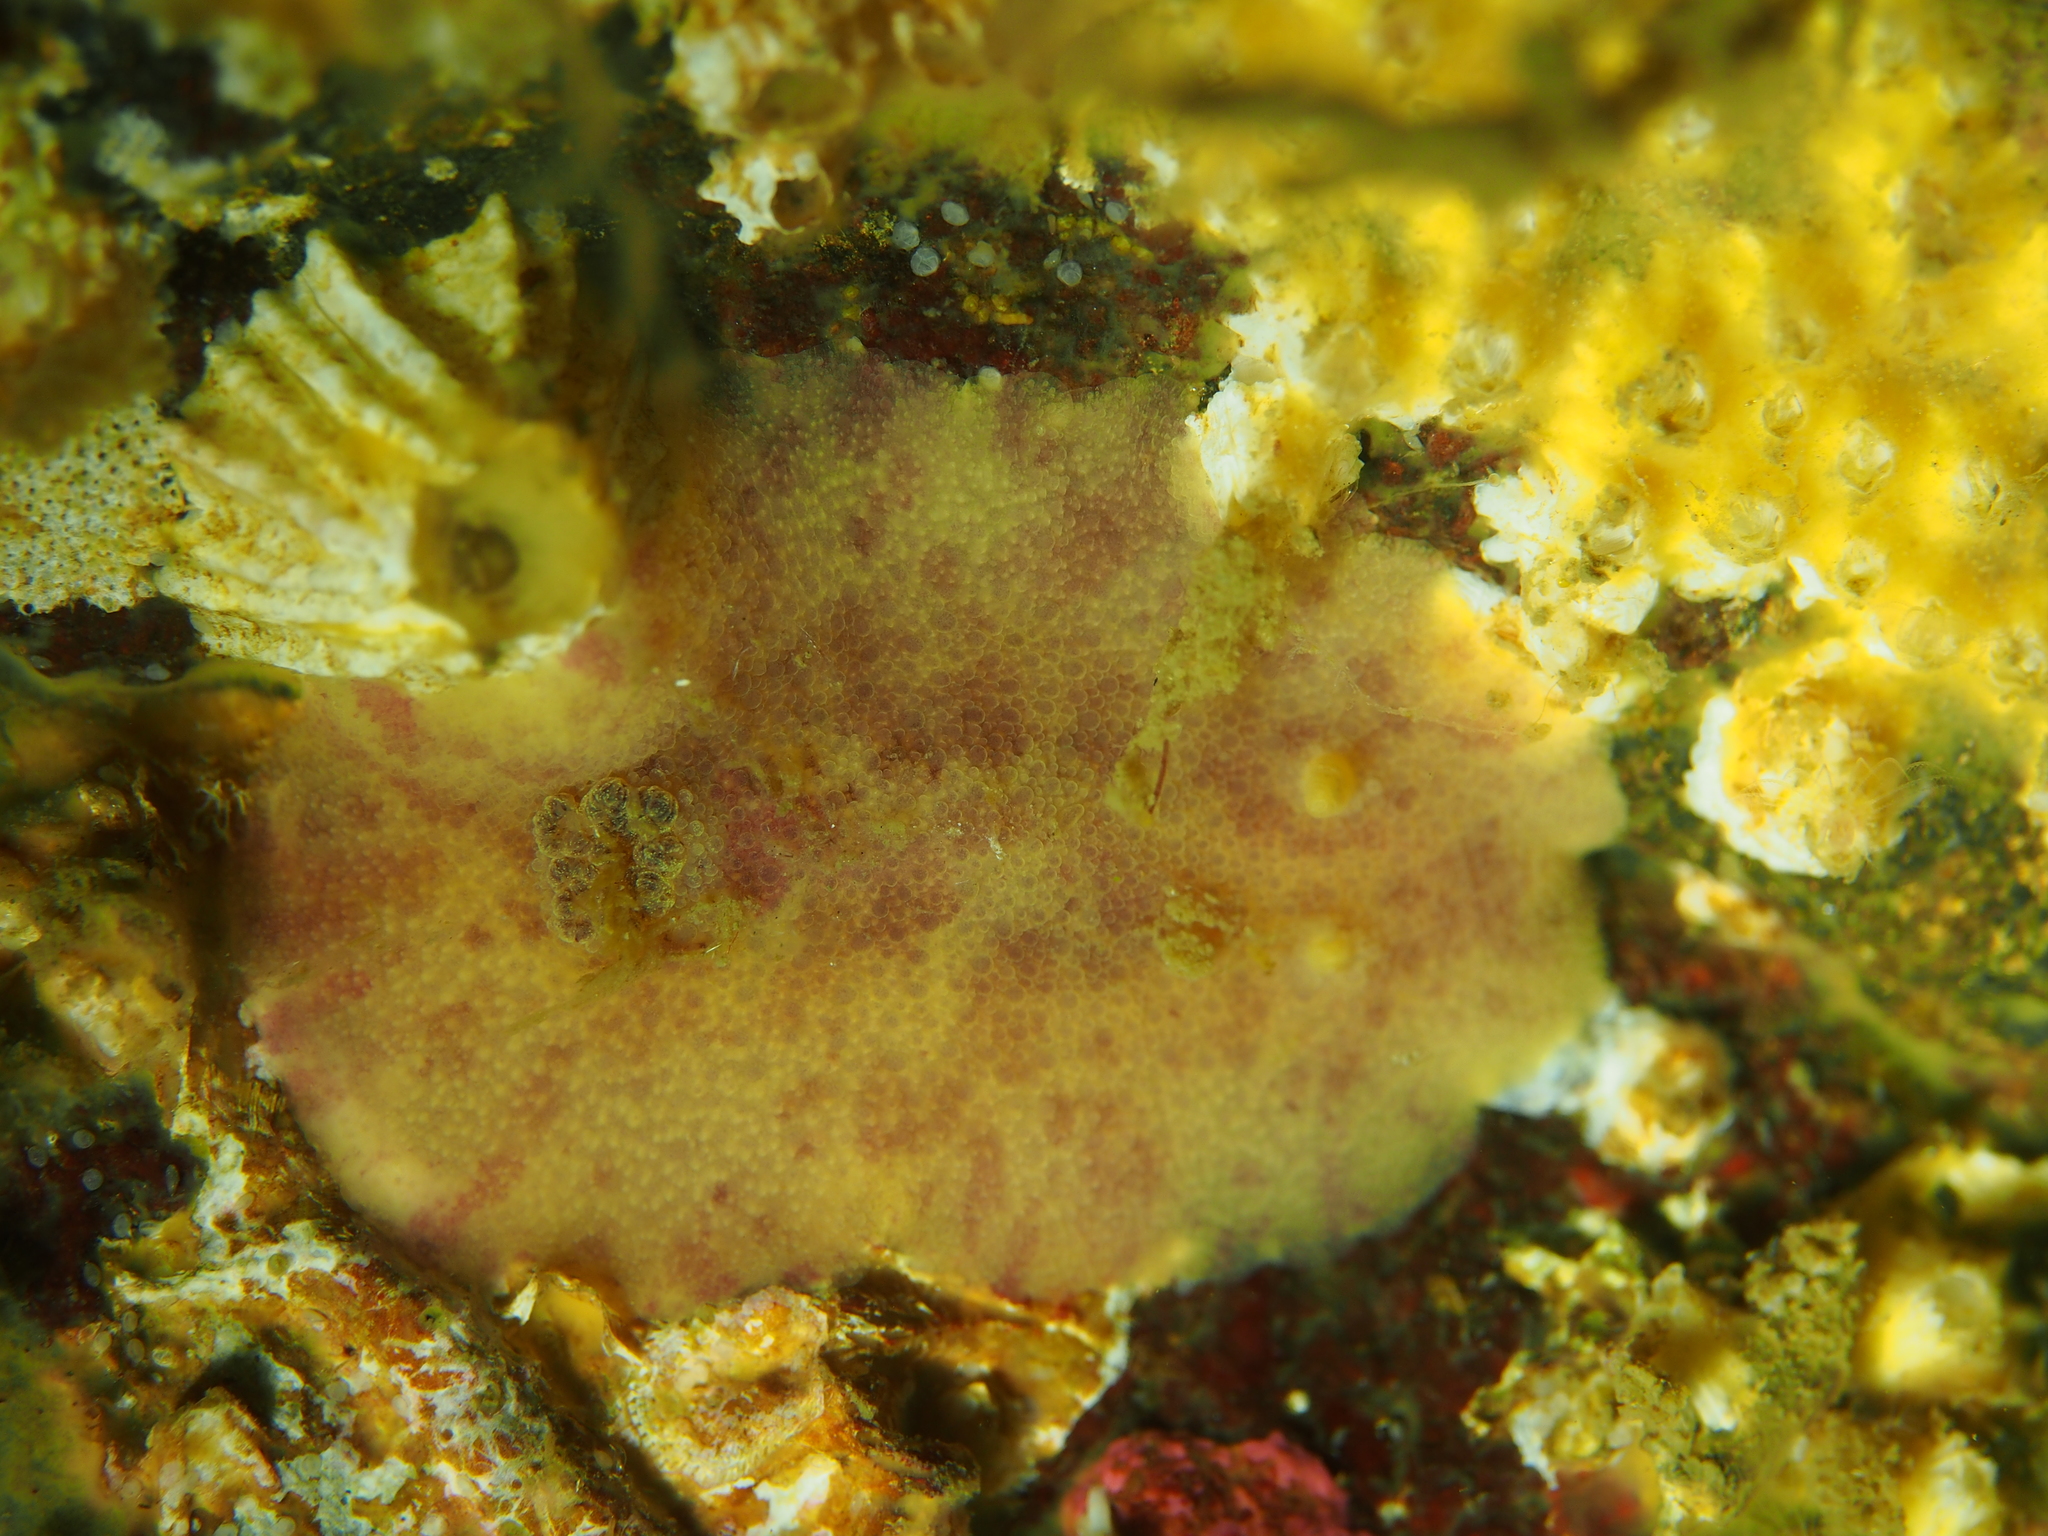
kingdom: Animalia
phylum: Mollusca
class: Gastropoda
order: Nudibranchia
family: Dorididae
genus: Doris
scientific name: Doris pseudoargus
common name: Sea lemon
